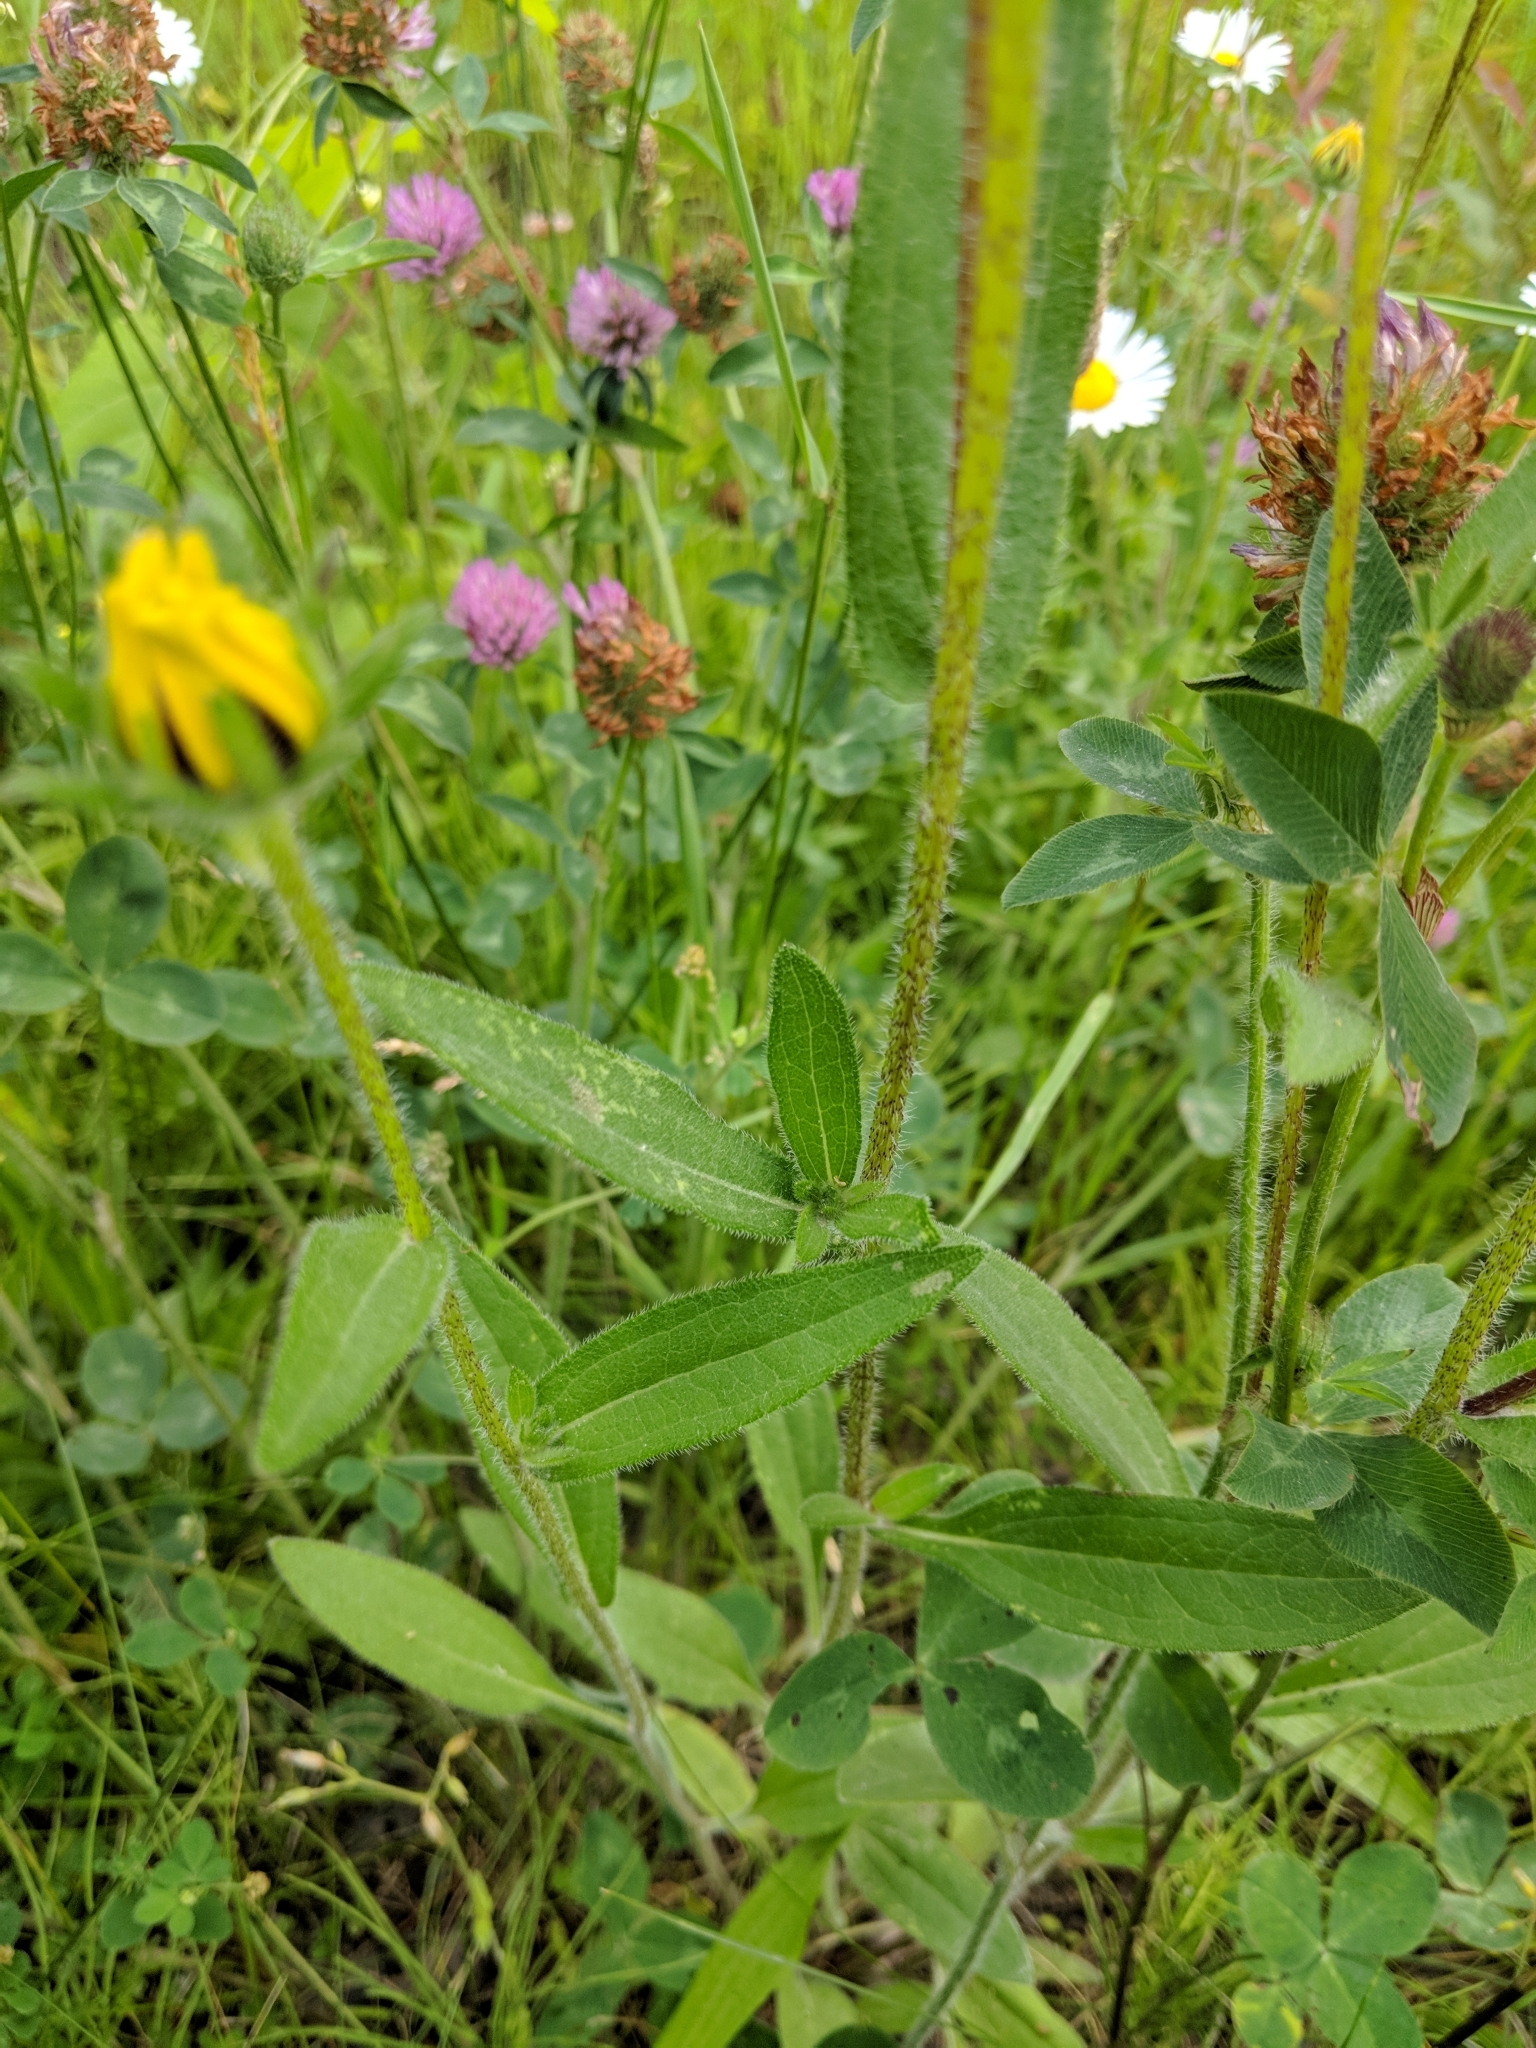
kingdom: Plantae
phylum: Tracheophyta
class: Magnoliopsida
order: Asterales
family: Asteraceae
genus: Rudbeckia
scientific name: Rudbeckia hirta
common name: Black-eyed-susan
